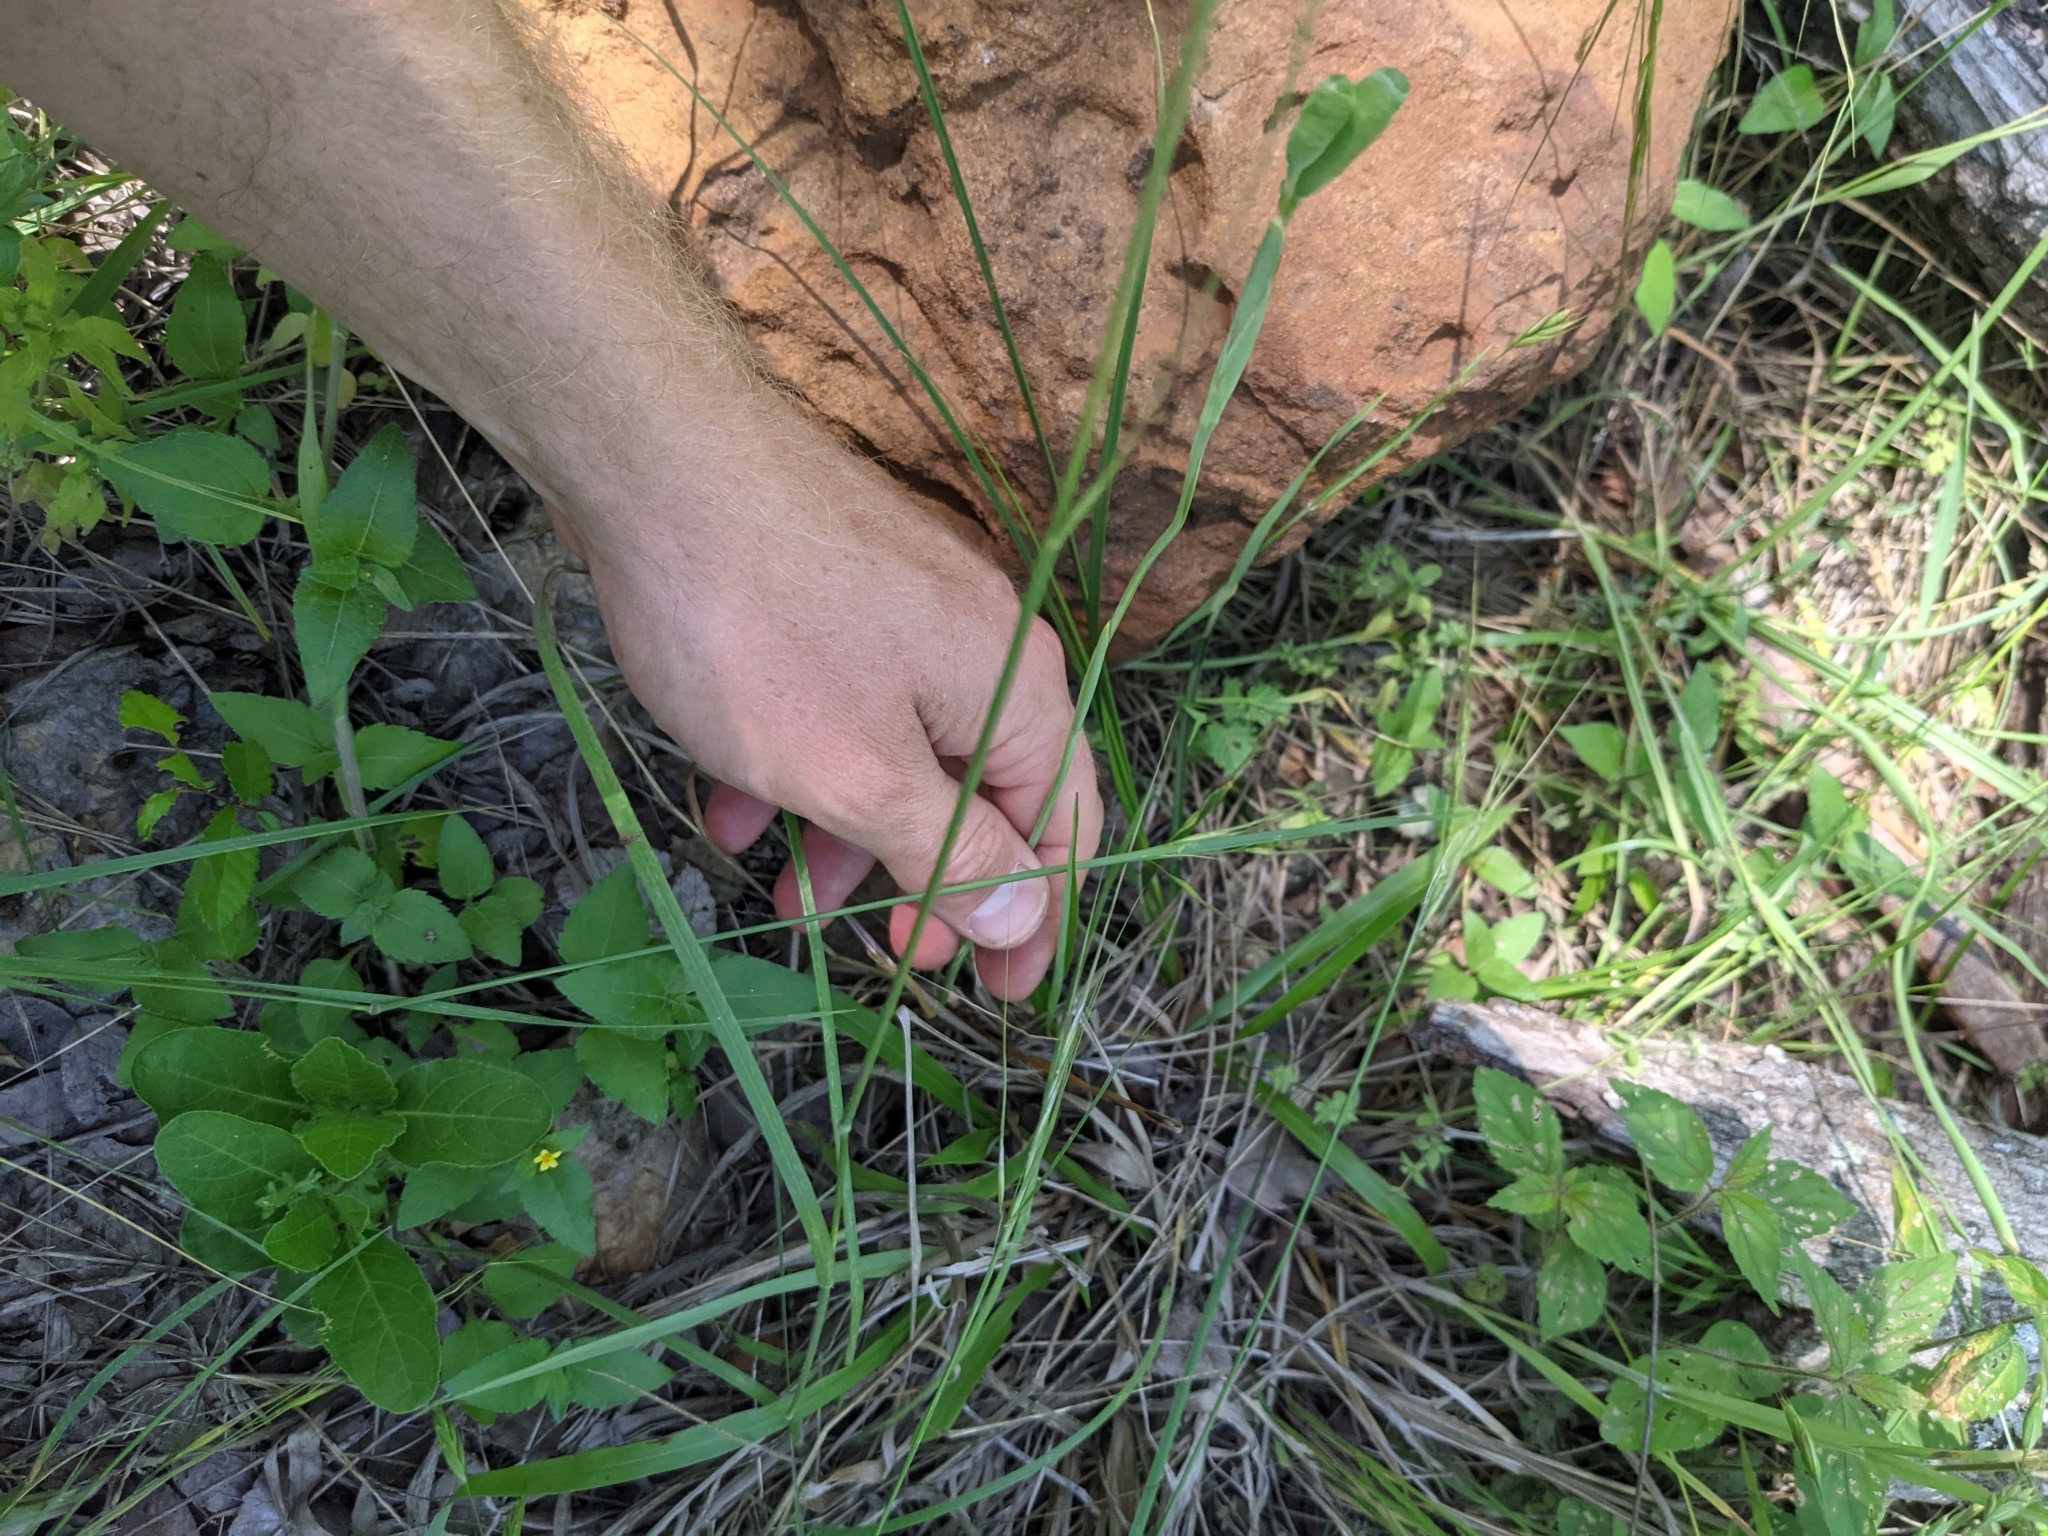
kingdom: Plantae
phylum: Tracheophyta
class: Liliopsida
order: Asparagales
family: Iridaceae
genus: Herbertia
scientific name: Herbertia lahue
